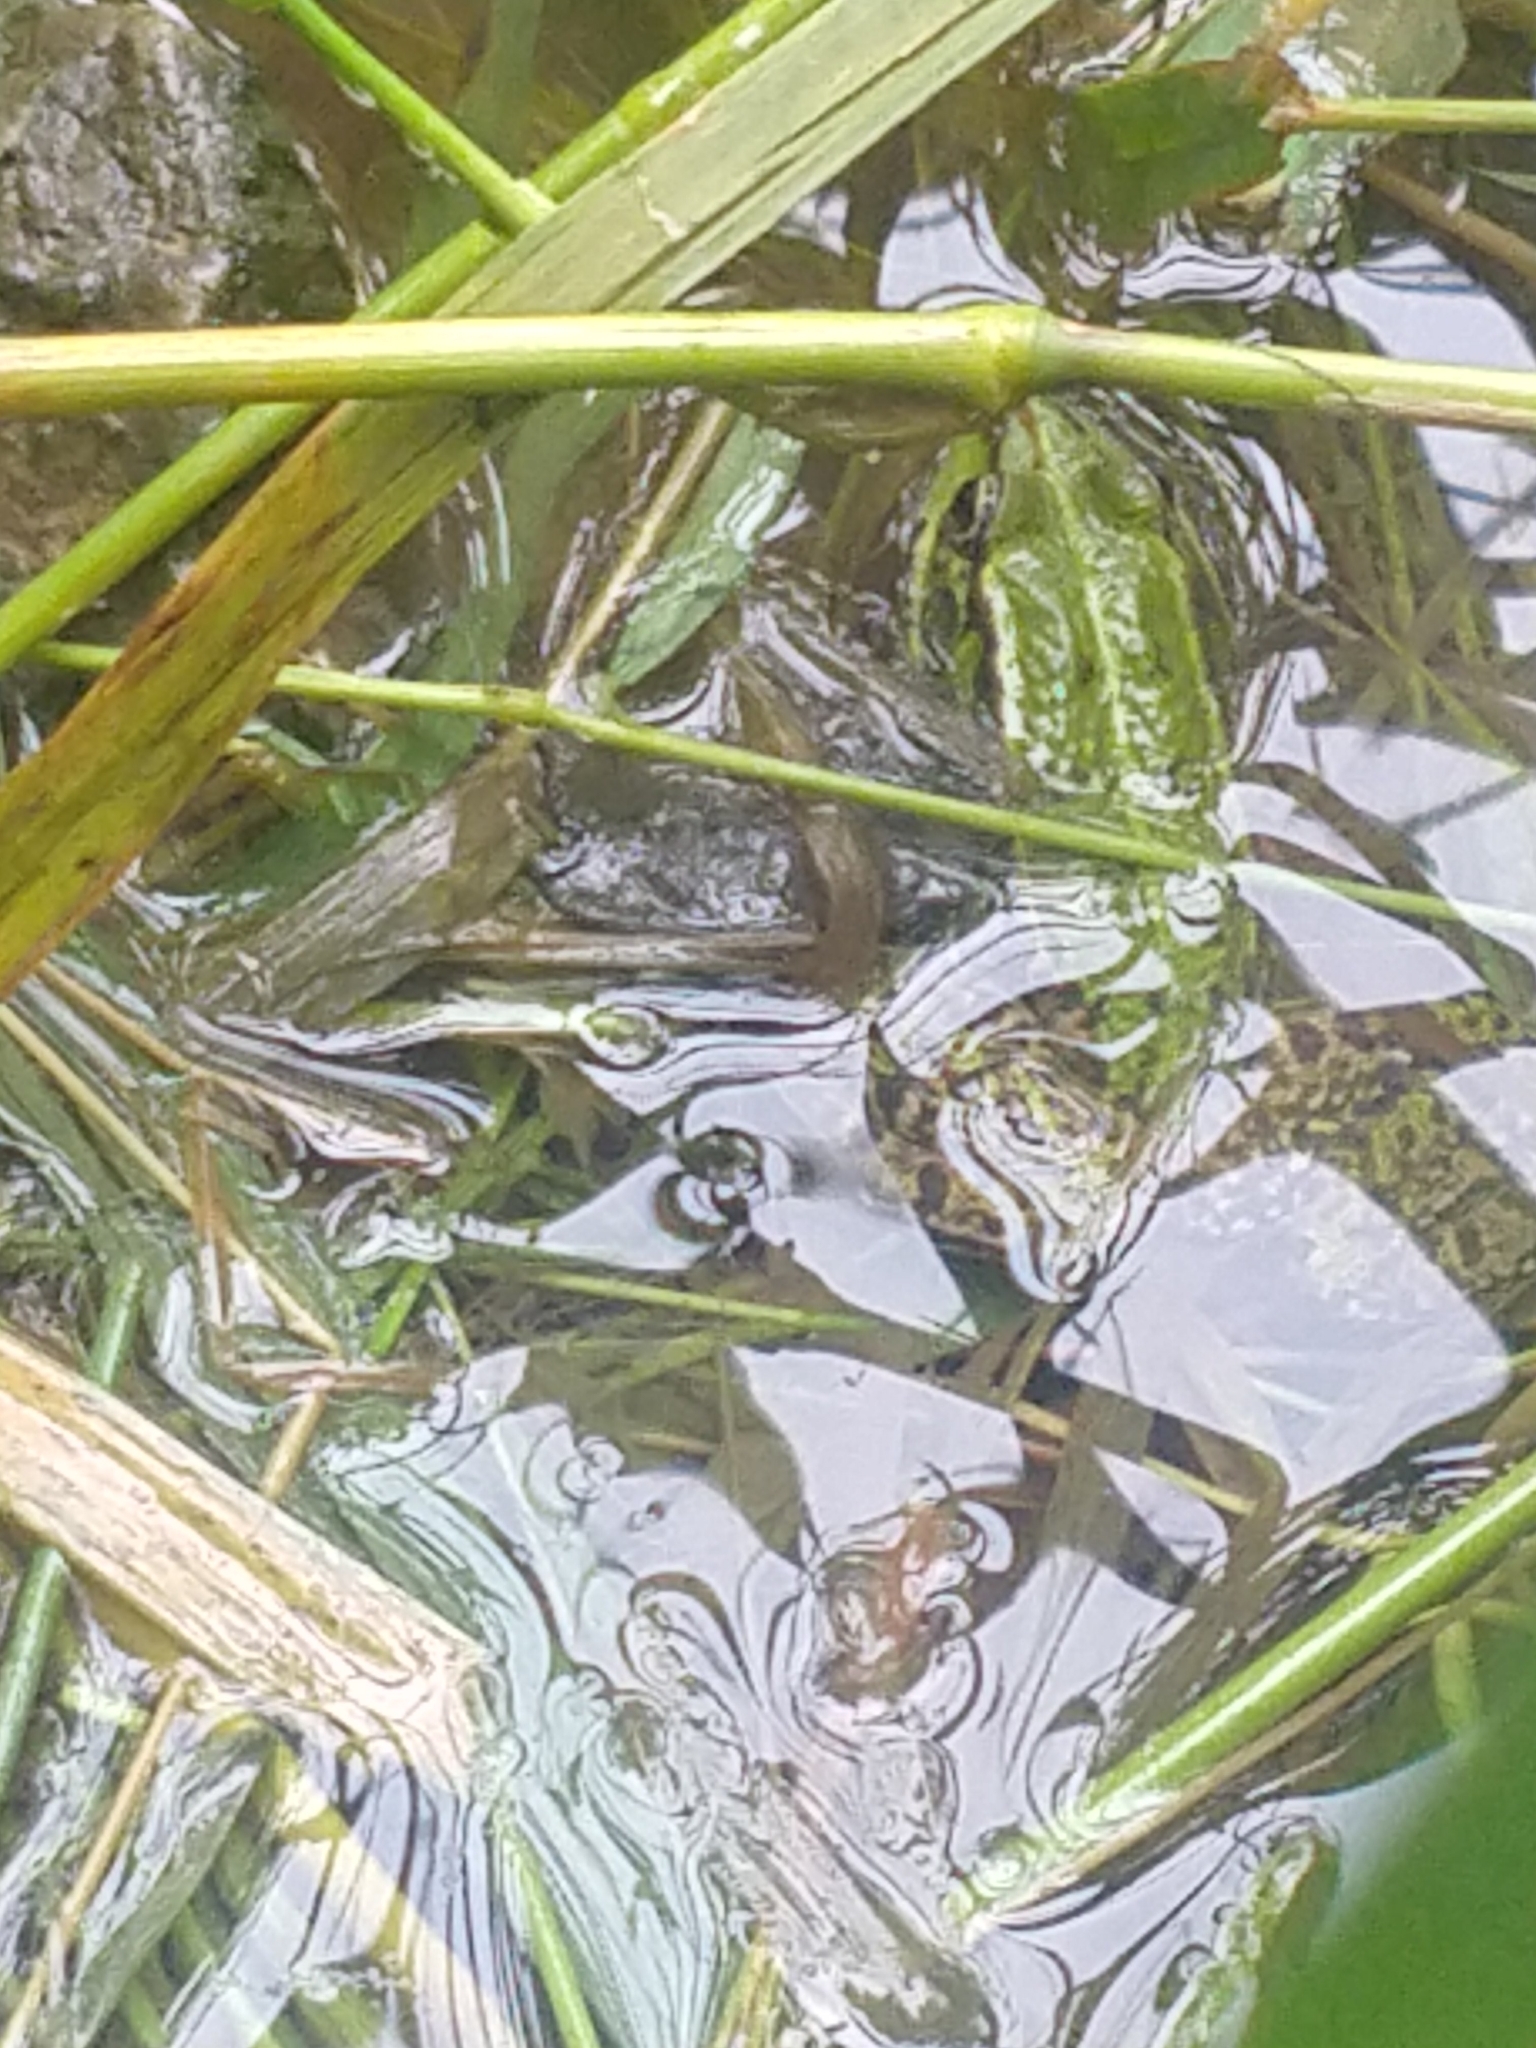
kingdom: Animalia
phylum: Chordata
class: Amphibia
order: Anura
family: Ranidae
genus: Pelophylax
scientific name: Pelophylax
